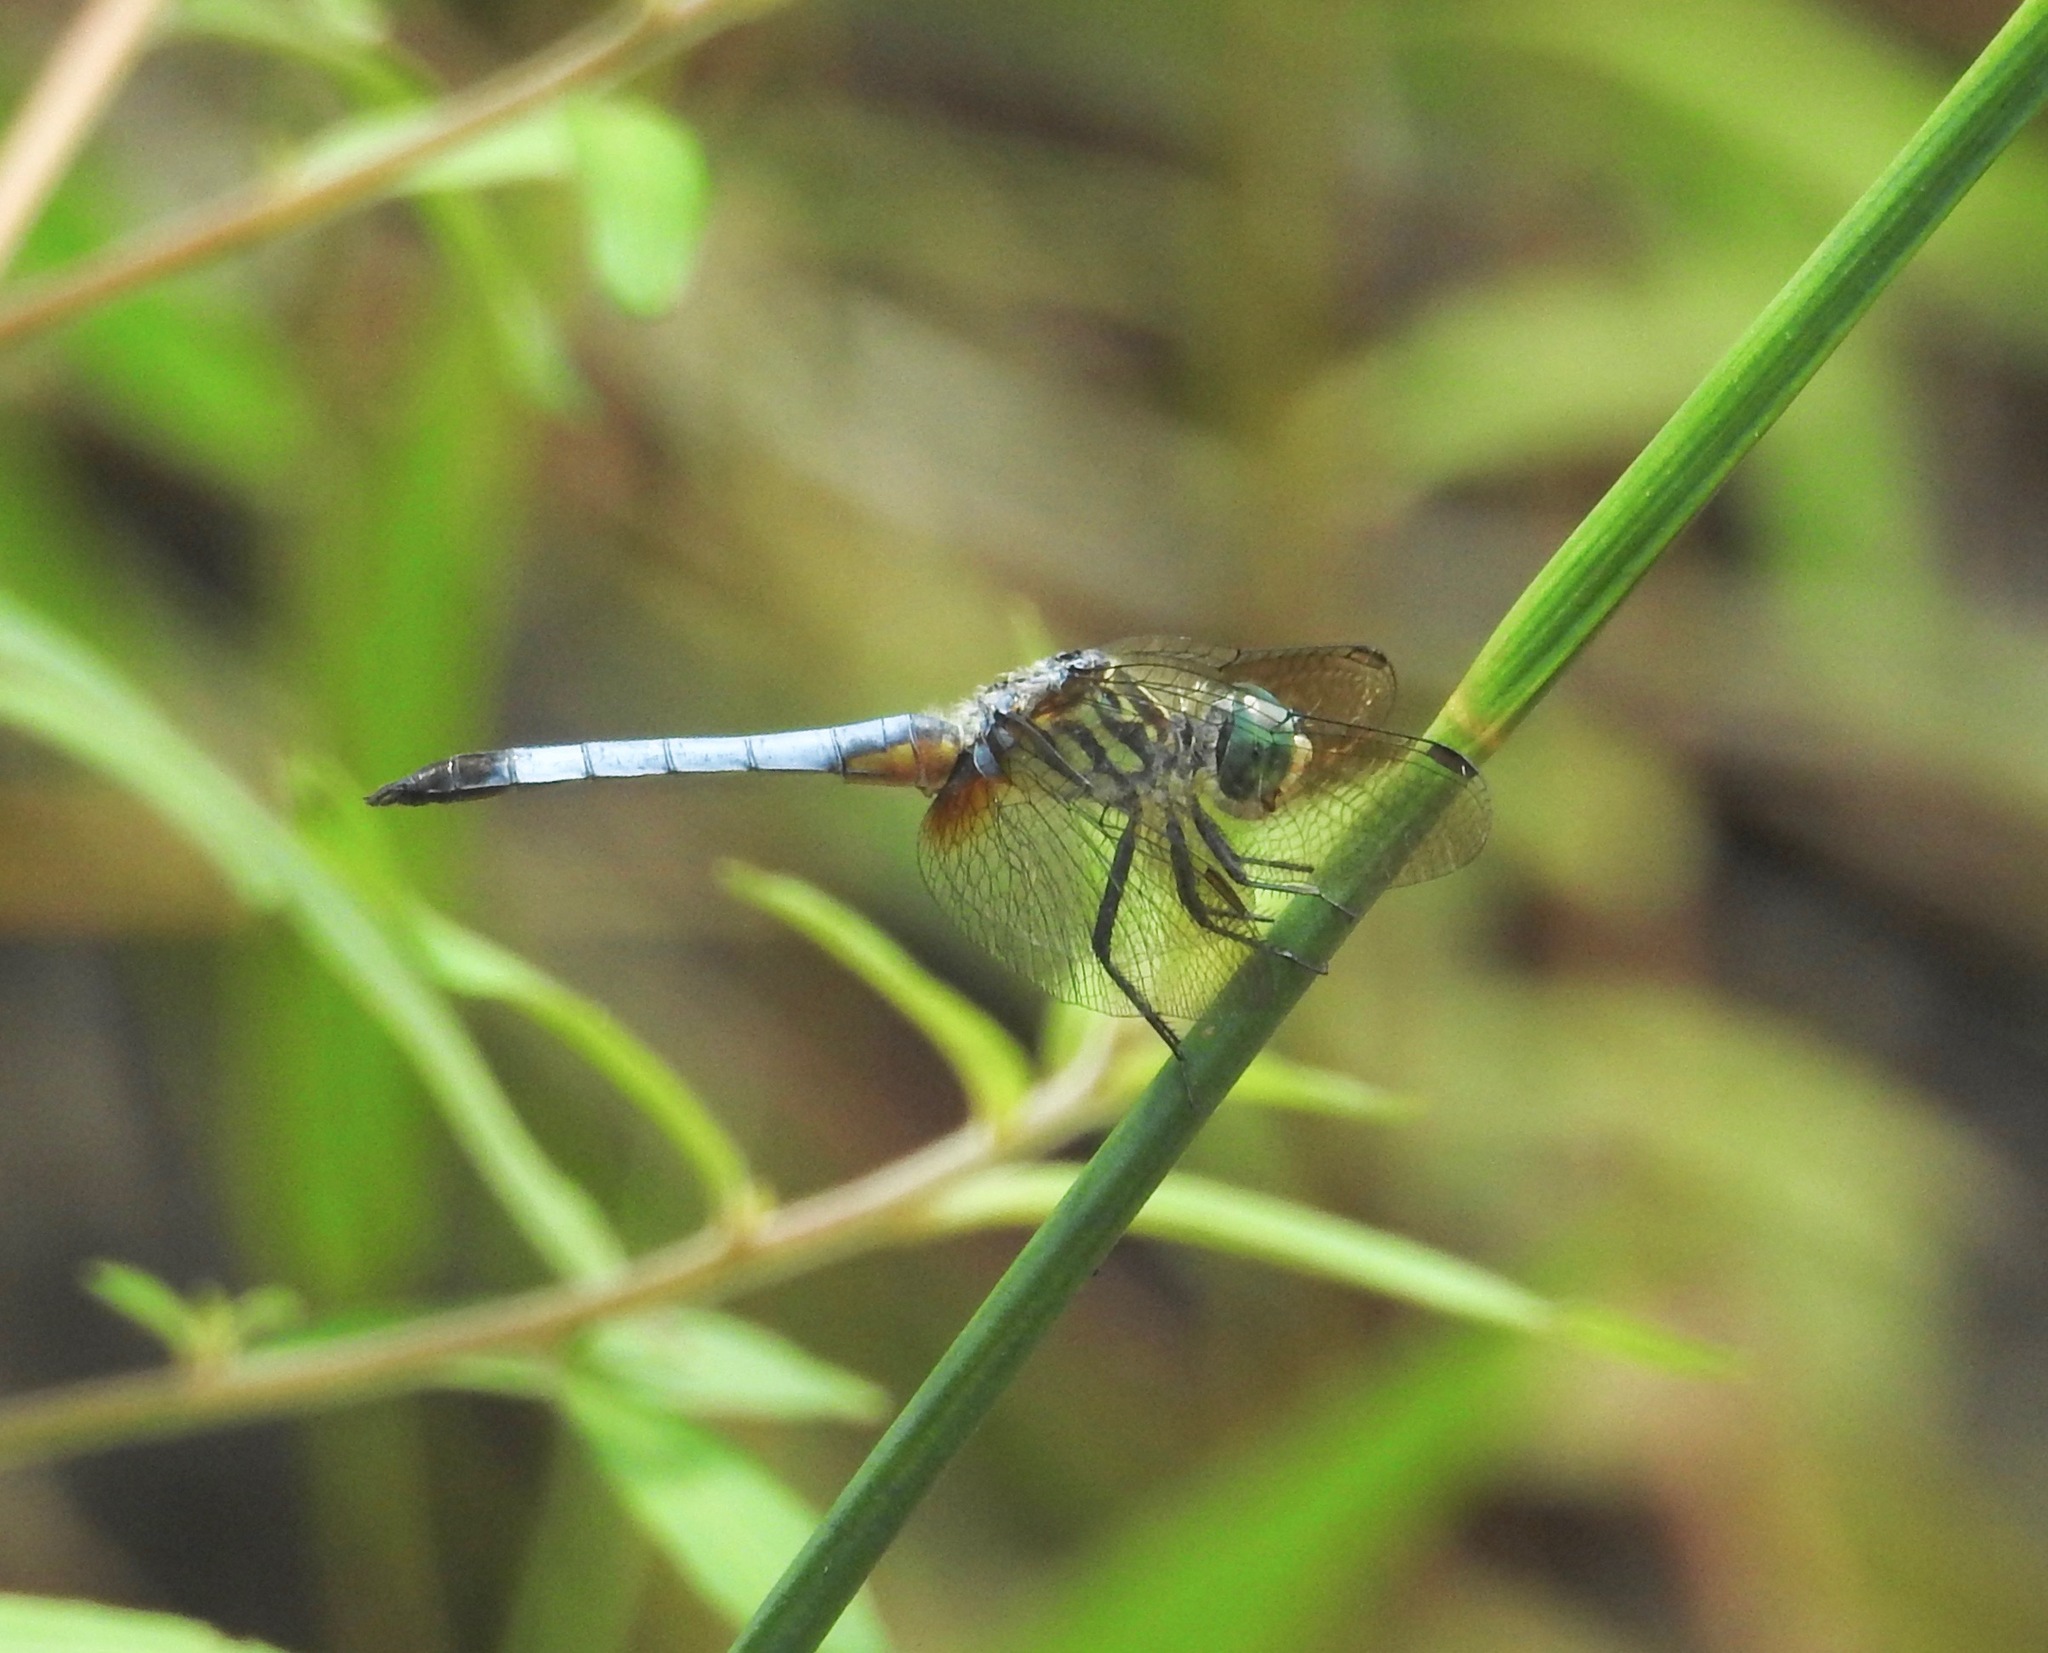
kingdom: Animalia
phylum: Arthropoda
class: Insecta
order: Odonata
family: Libellulidae
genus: Pachydiplax
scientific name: Pachydiplax longipennis
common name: Blue dasher
